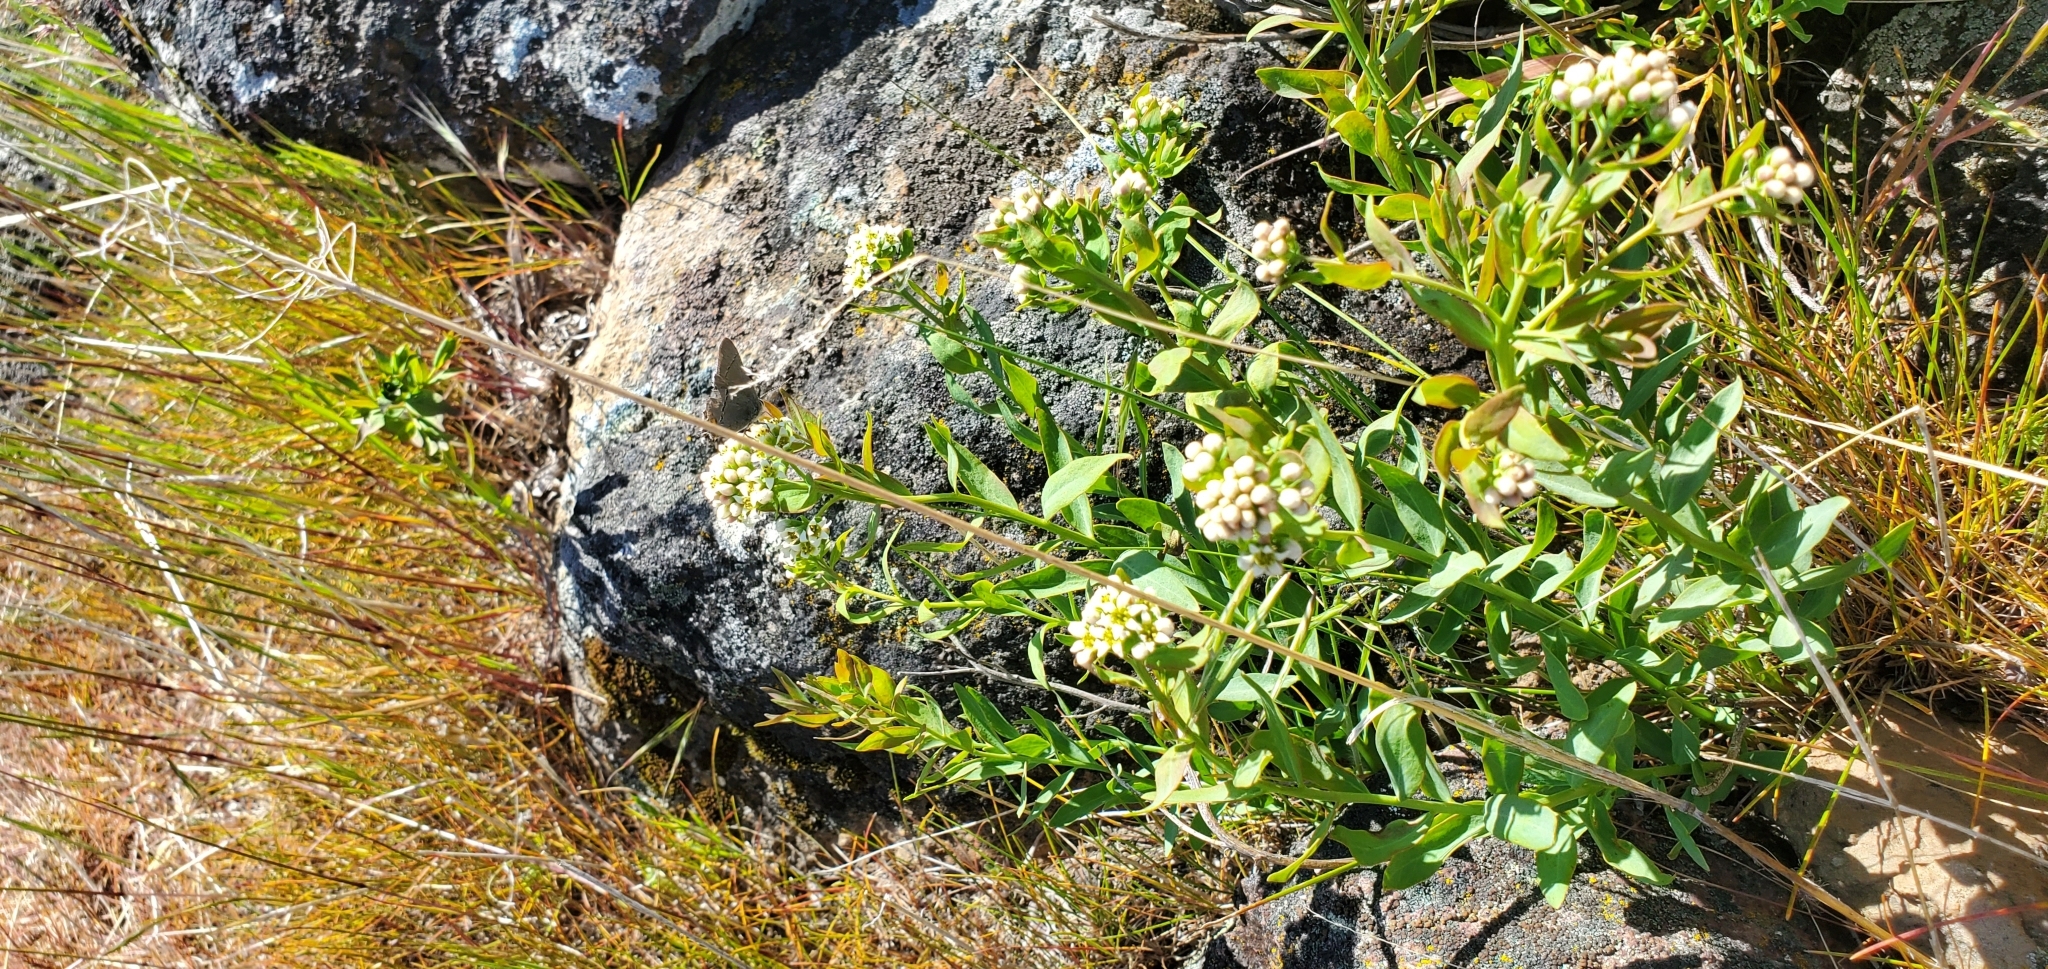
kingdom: Plantae
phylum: Tracheophyta
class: Magnoliopsida
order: Santalales
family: Comandraceae
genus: Comandra
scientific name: Comandra umbellata
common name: Bastard toadflax
